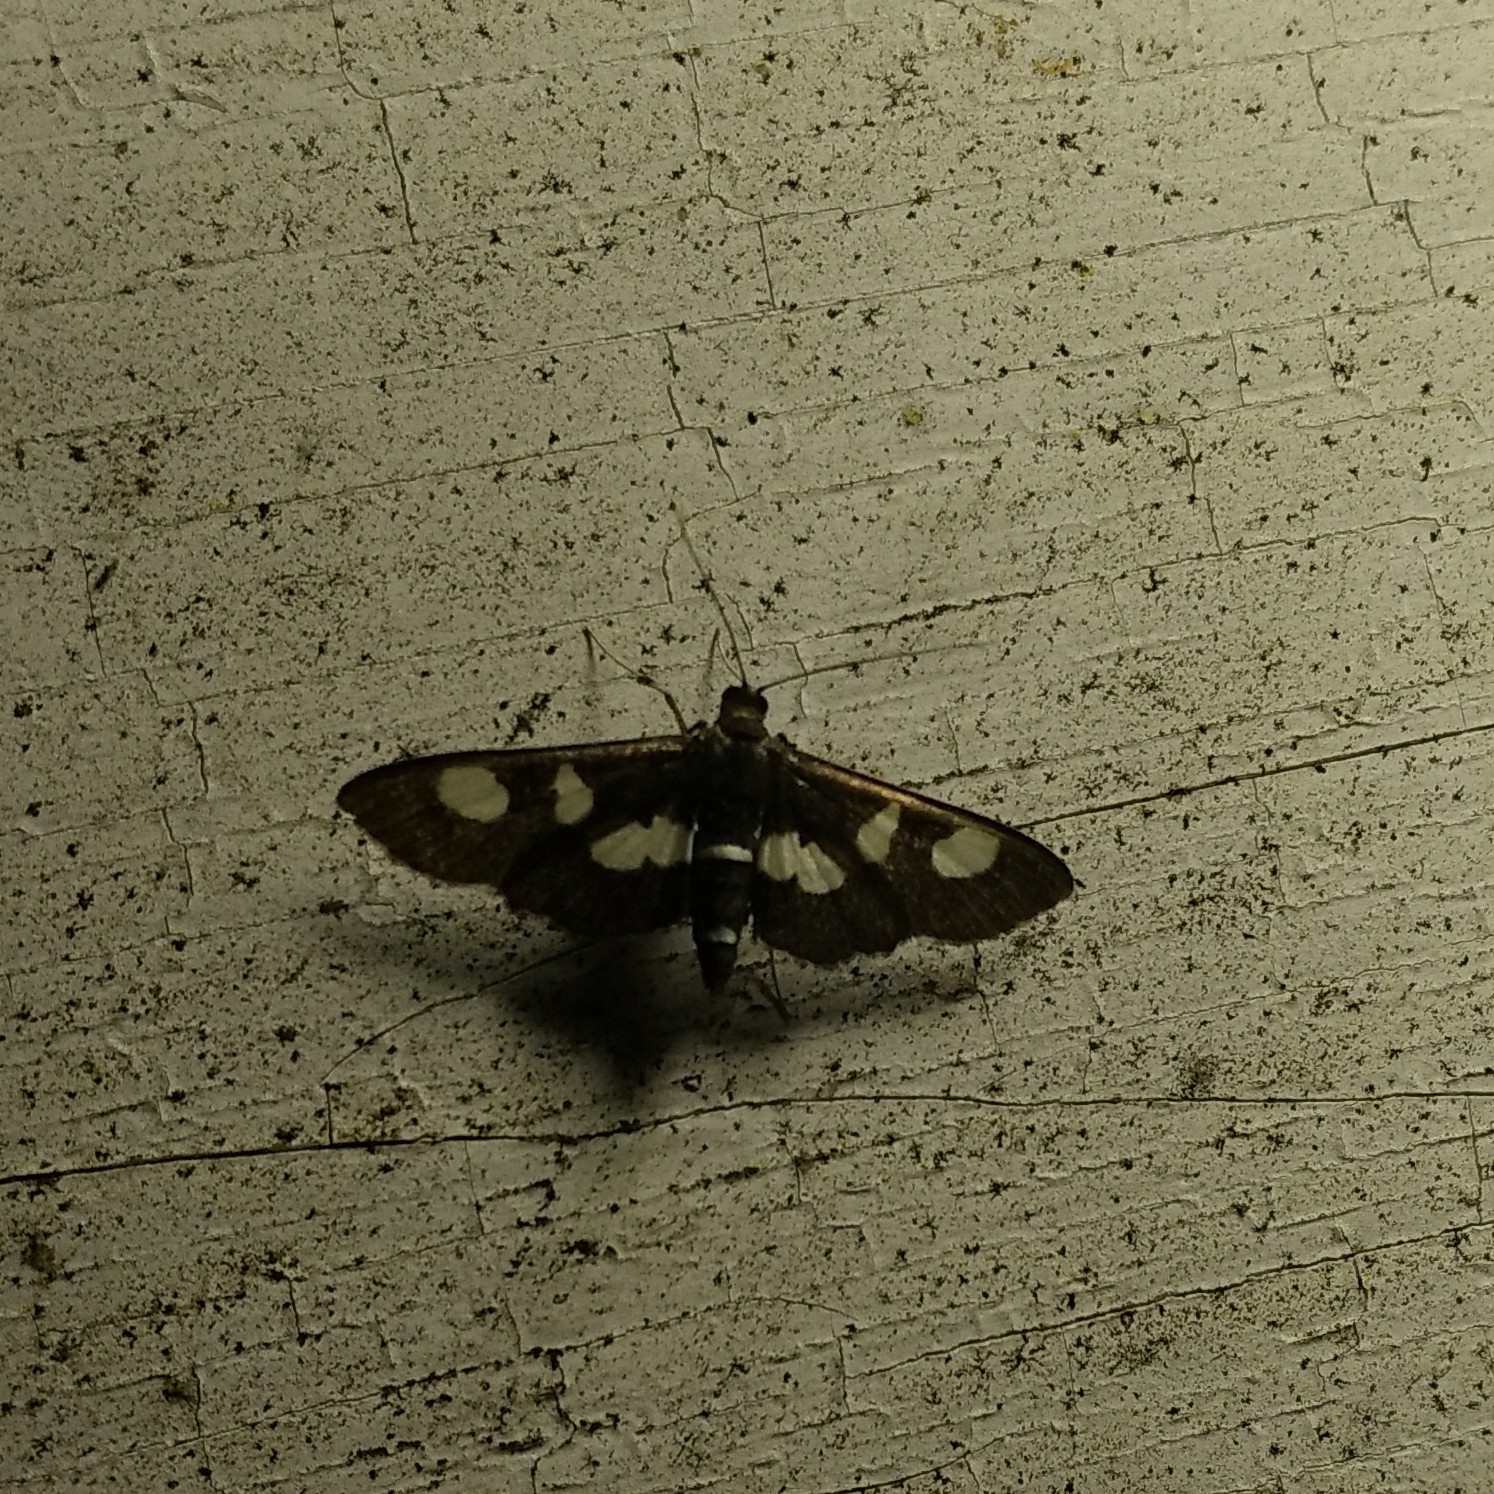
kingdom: Animalia
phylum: Arthropoda
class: Insecta
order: Lepidoptera
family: Crambidae
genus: Desmia
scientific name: Desmia funeralis
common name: Grape leaf folder moth
